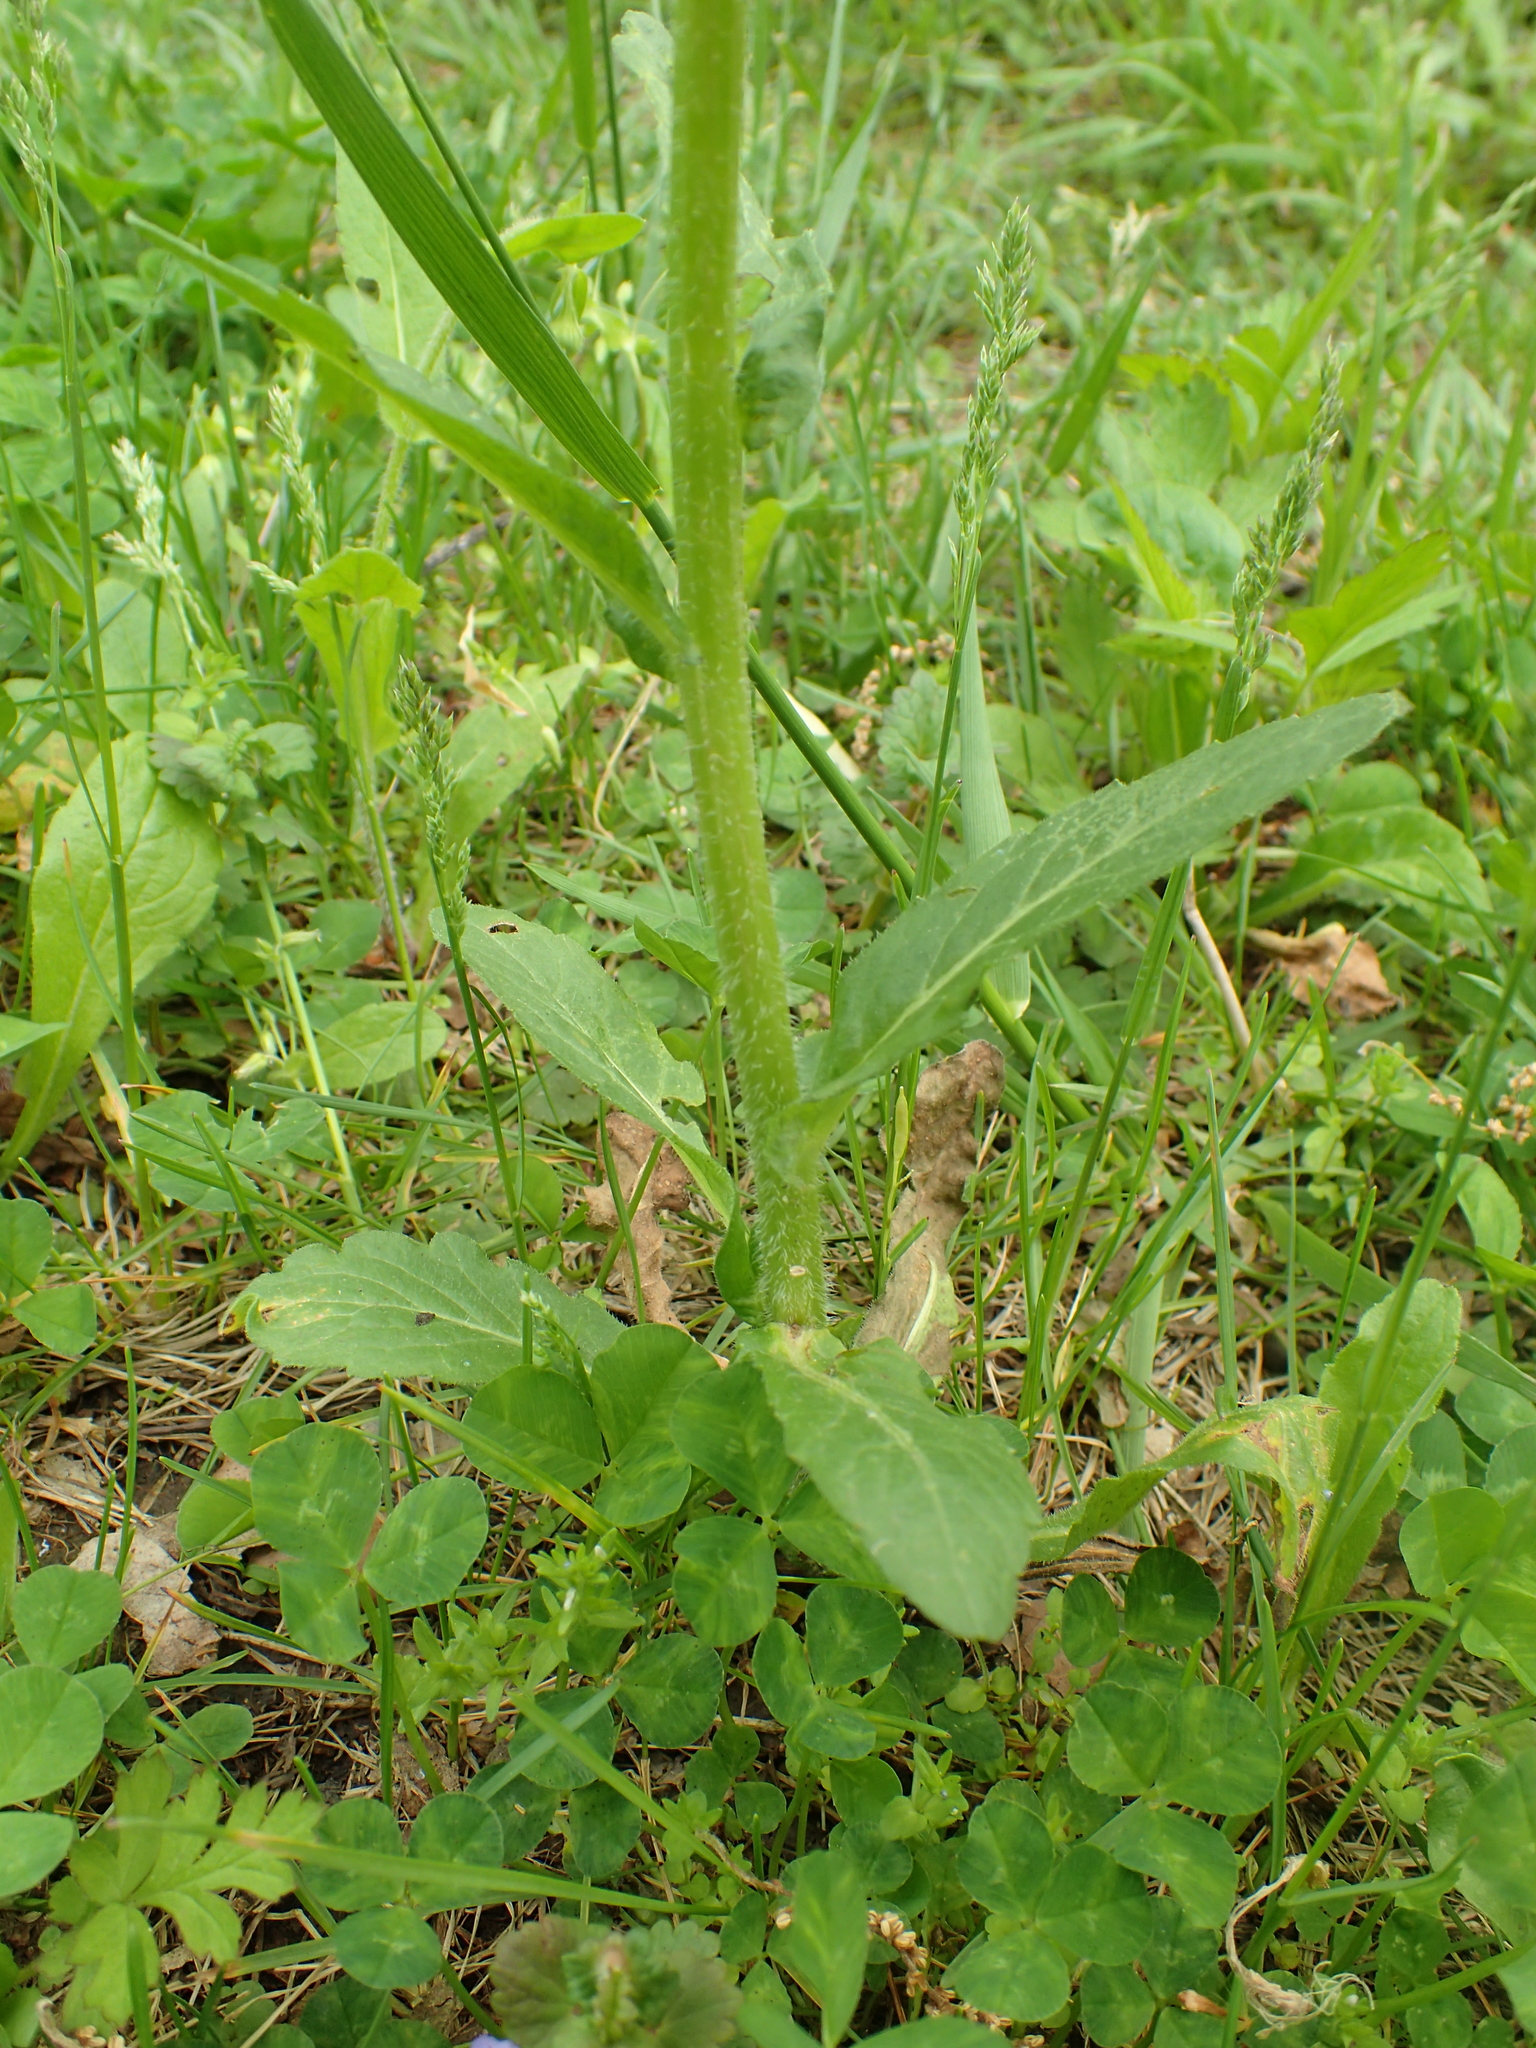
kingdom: Plantae
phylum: Tracheophyta
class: Magnoliopsida
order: Asterales
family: Asteraceae
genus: Erigeron
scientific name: Erigeron philadelphicus
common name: Robin's-plantain
